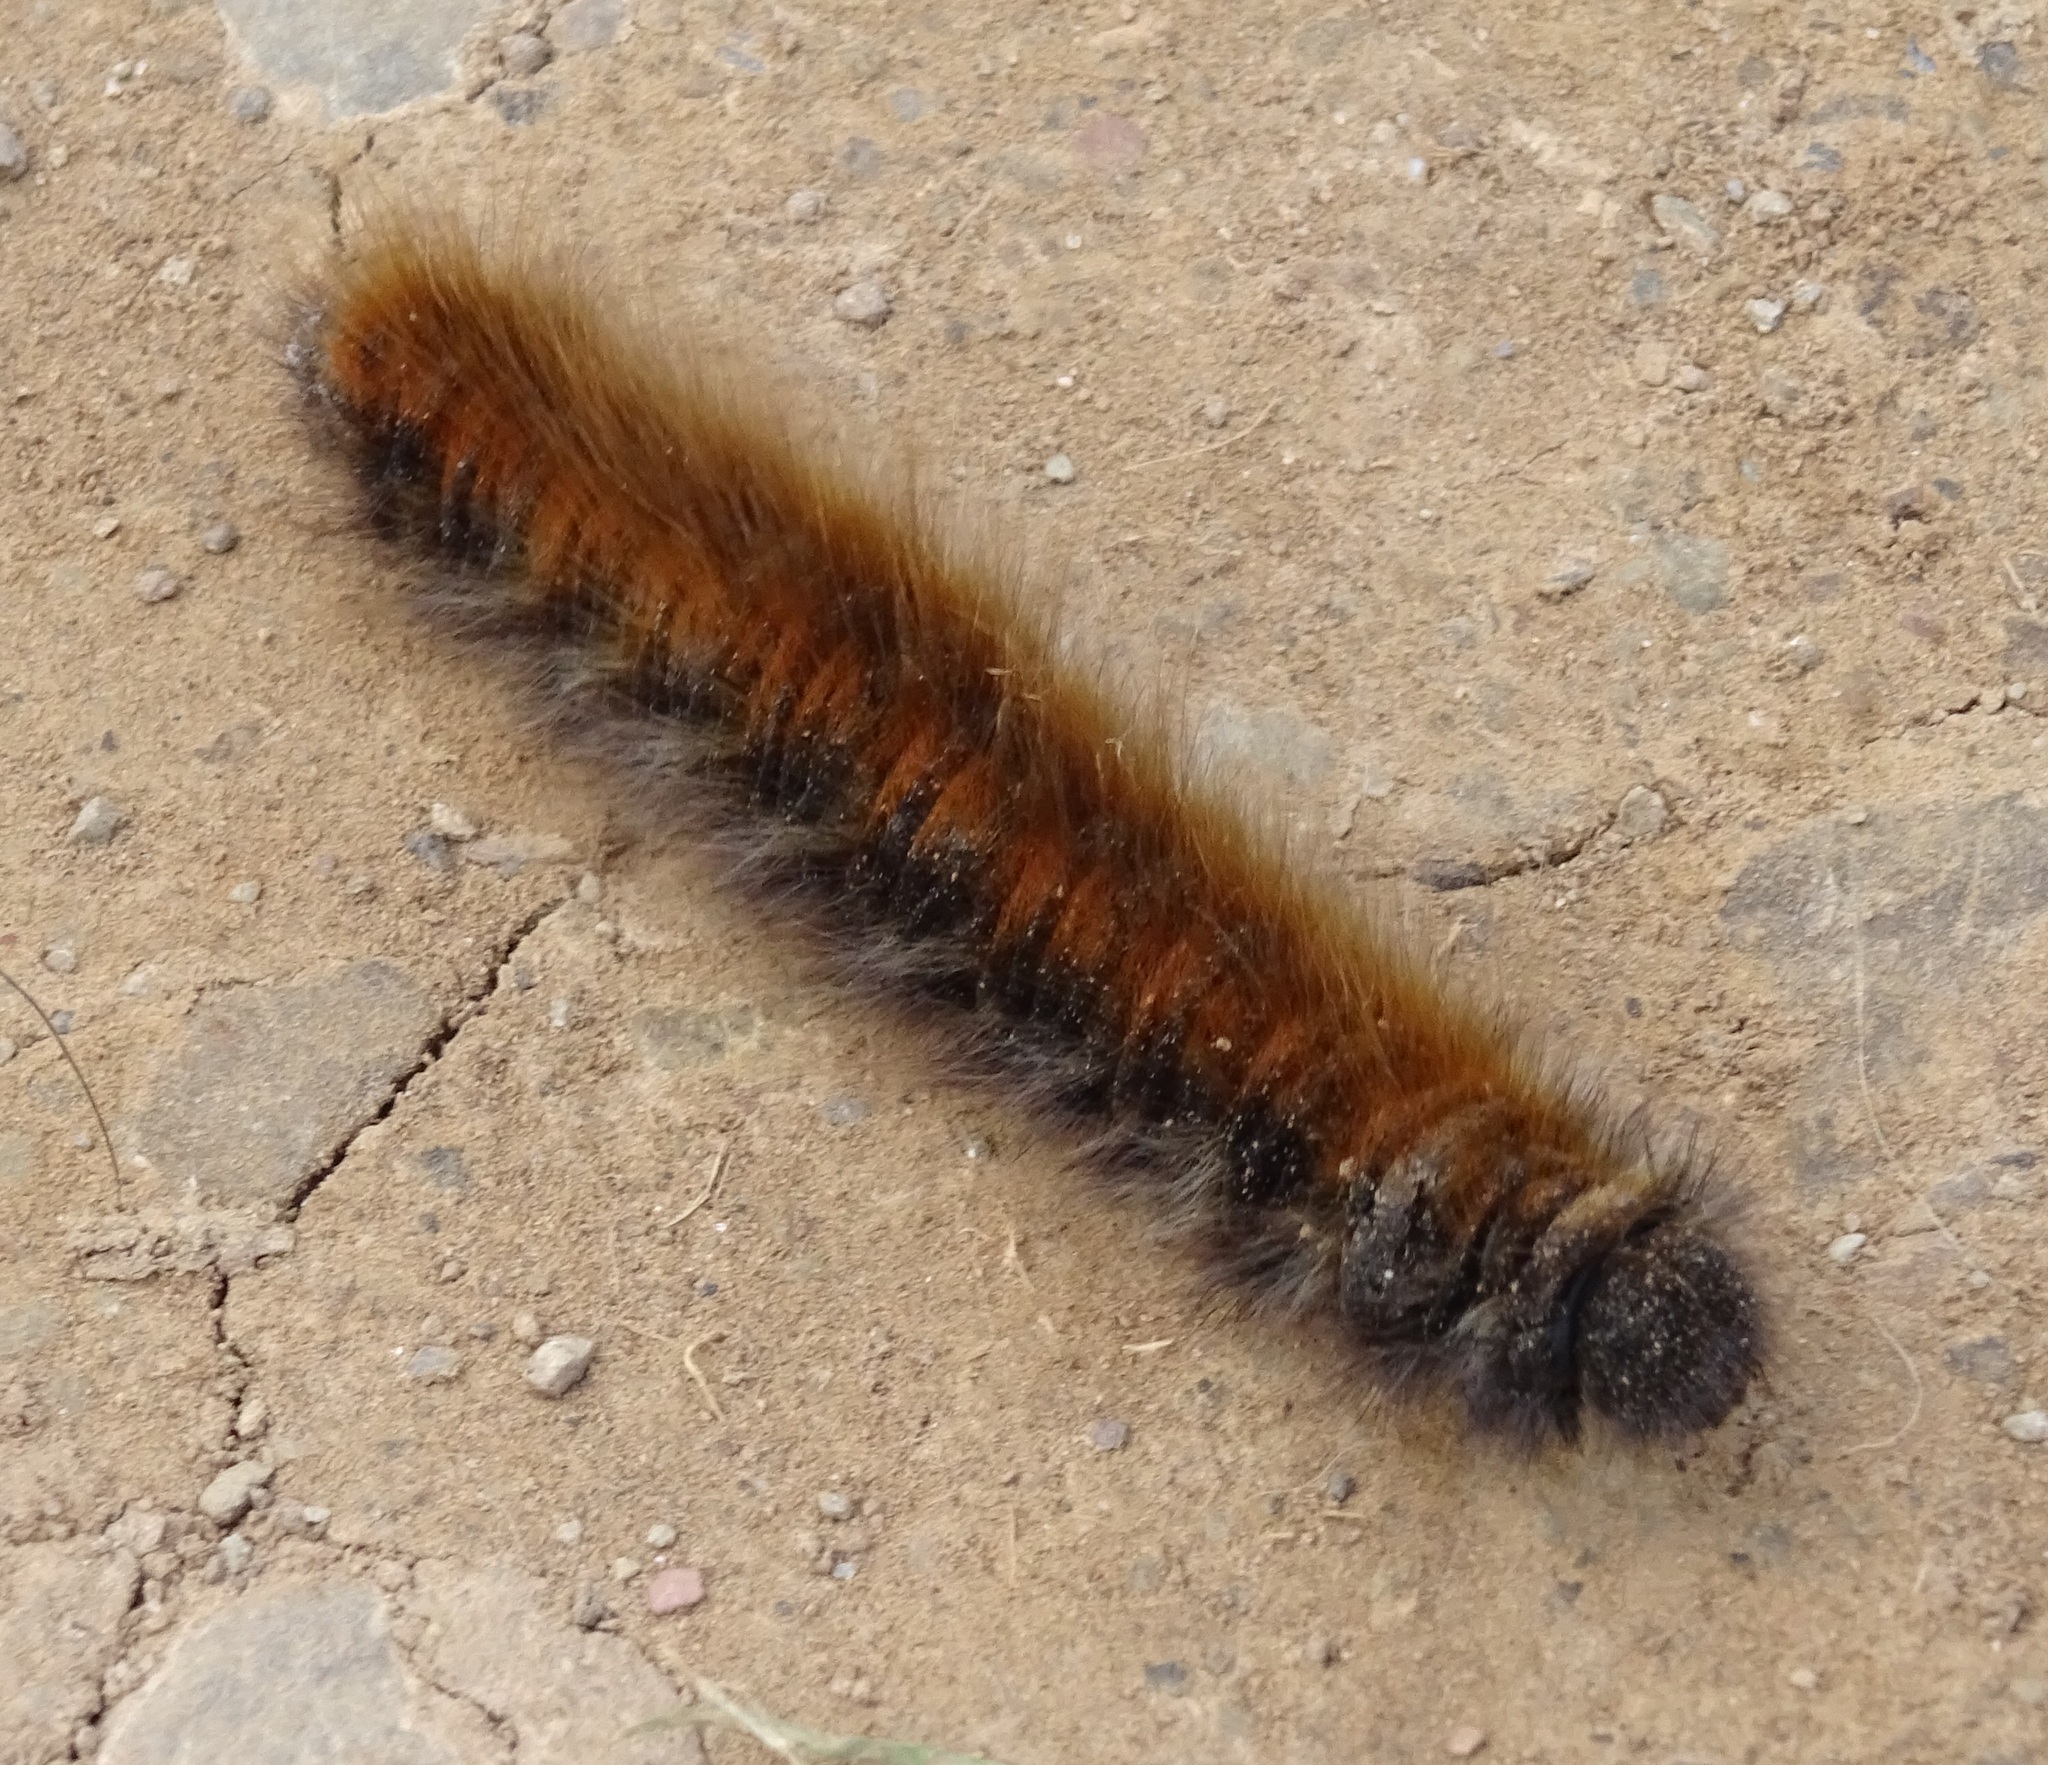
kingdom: Animalia
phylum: Arthropoda
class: Insecta
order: Lepidoptera
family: Lasiocampidae
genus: Macrothylacia
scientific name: Macrothylacia rubi
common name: Fox moth
